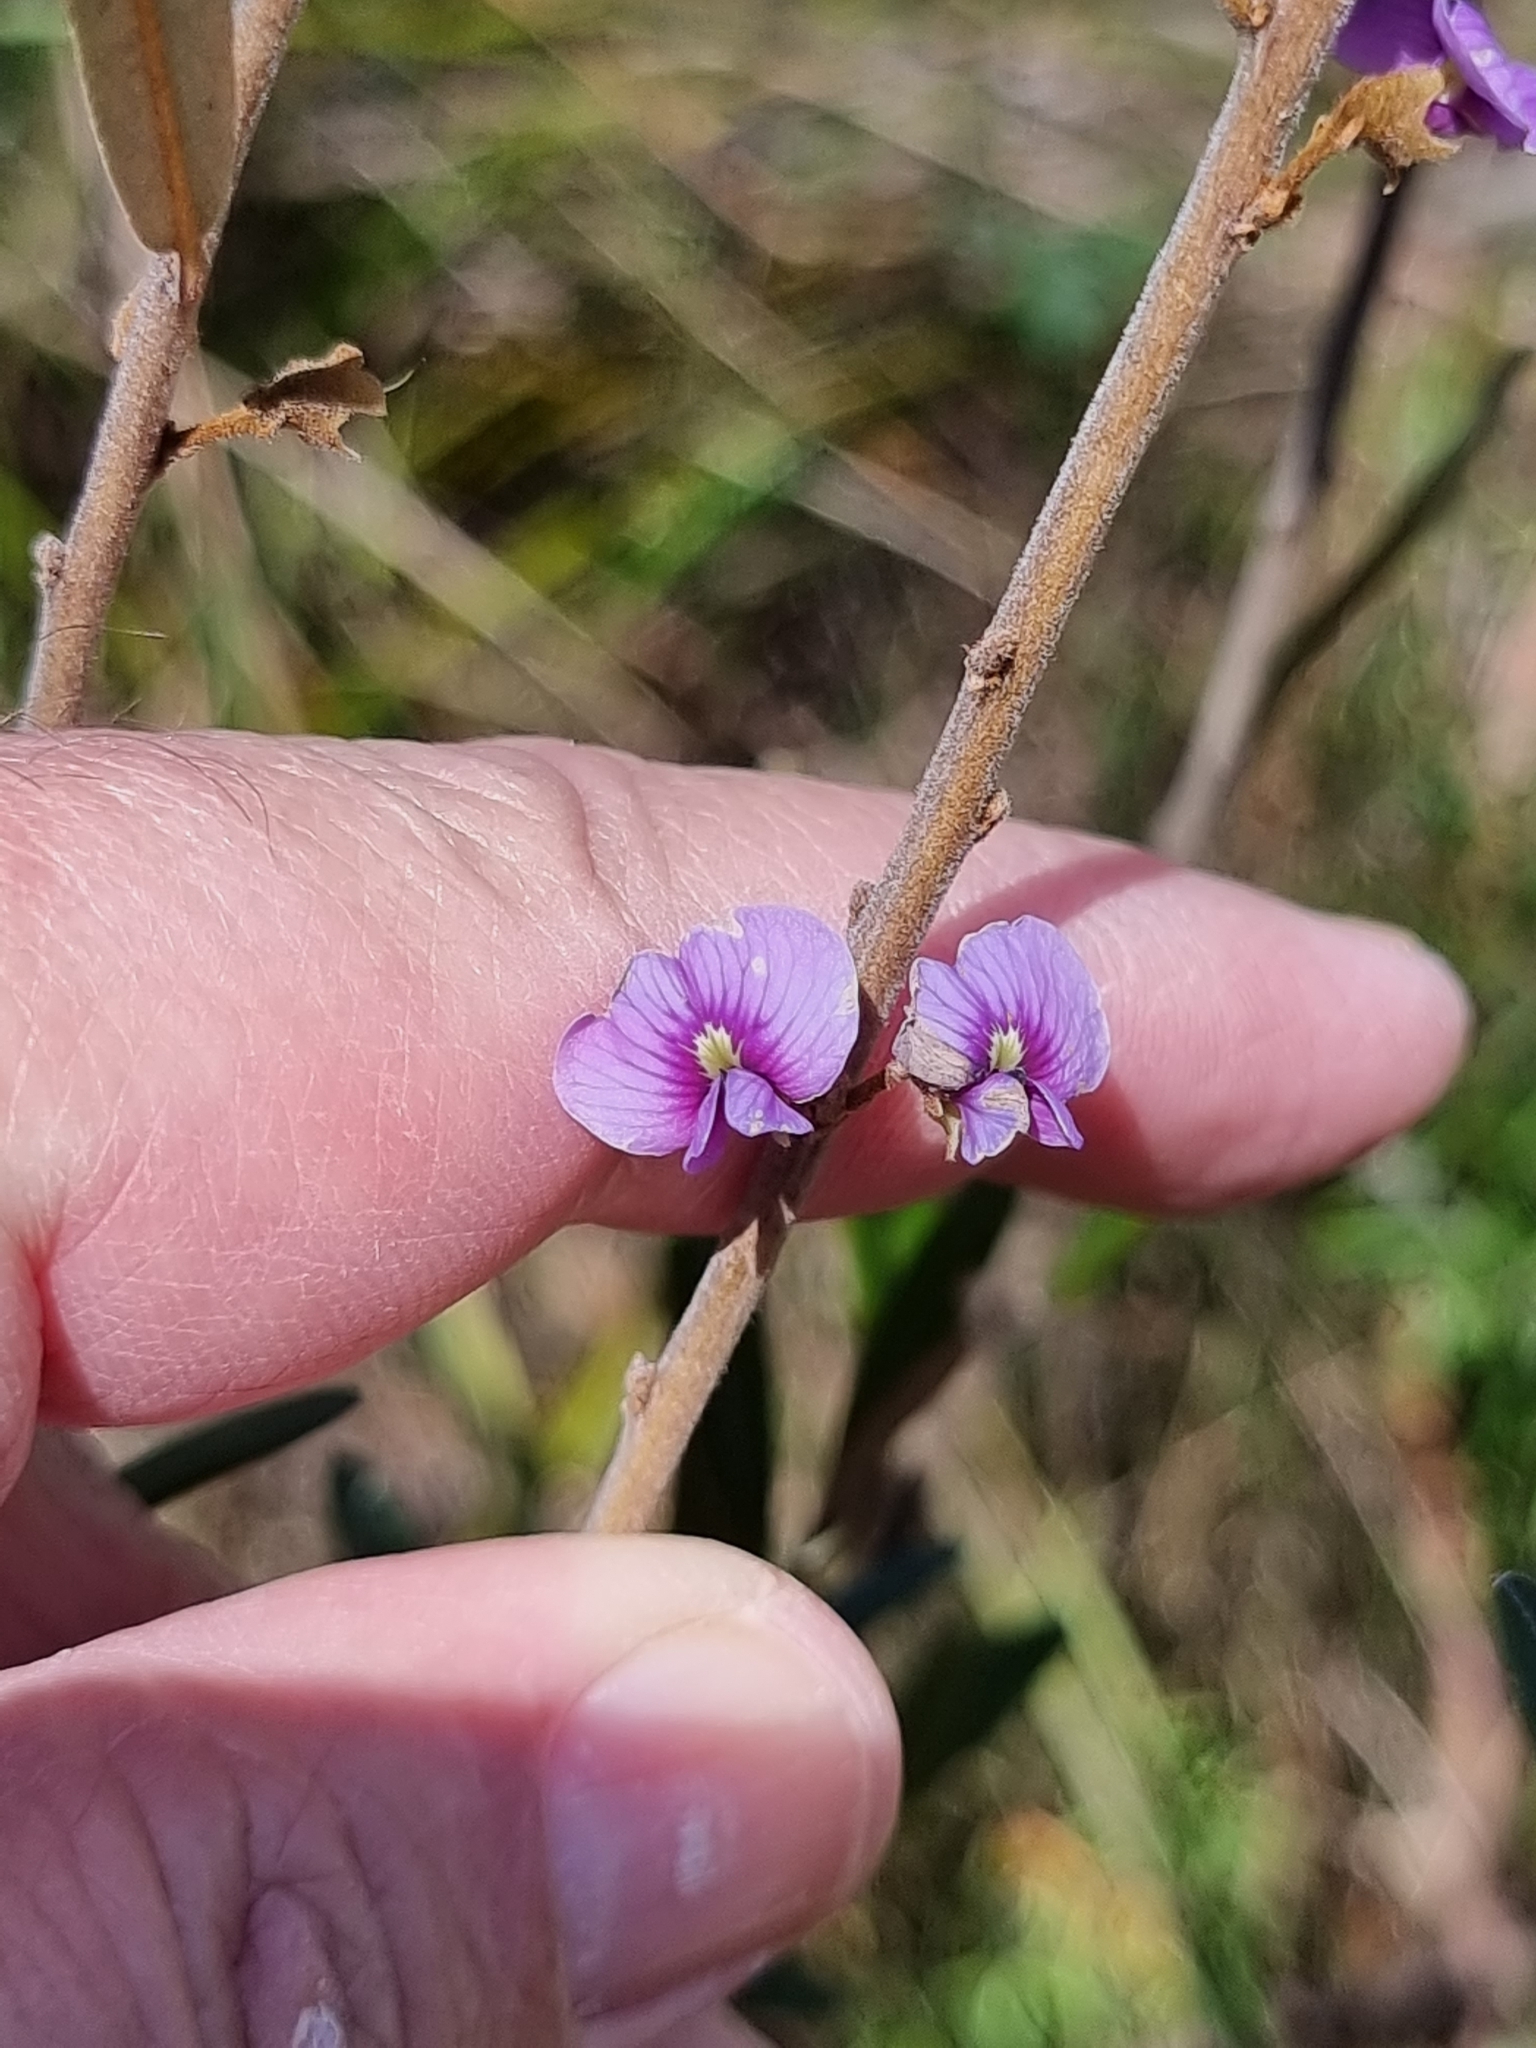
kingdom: Plantae
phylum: Tracheophyta
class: Magnoliopsida
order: Fabales
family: Fabaceae
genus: Hovea
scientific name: Hovea lorata
